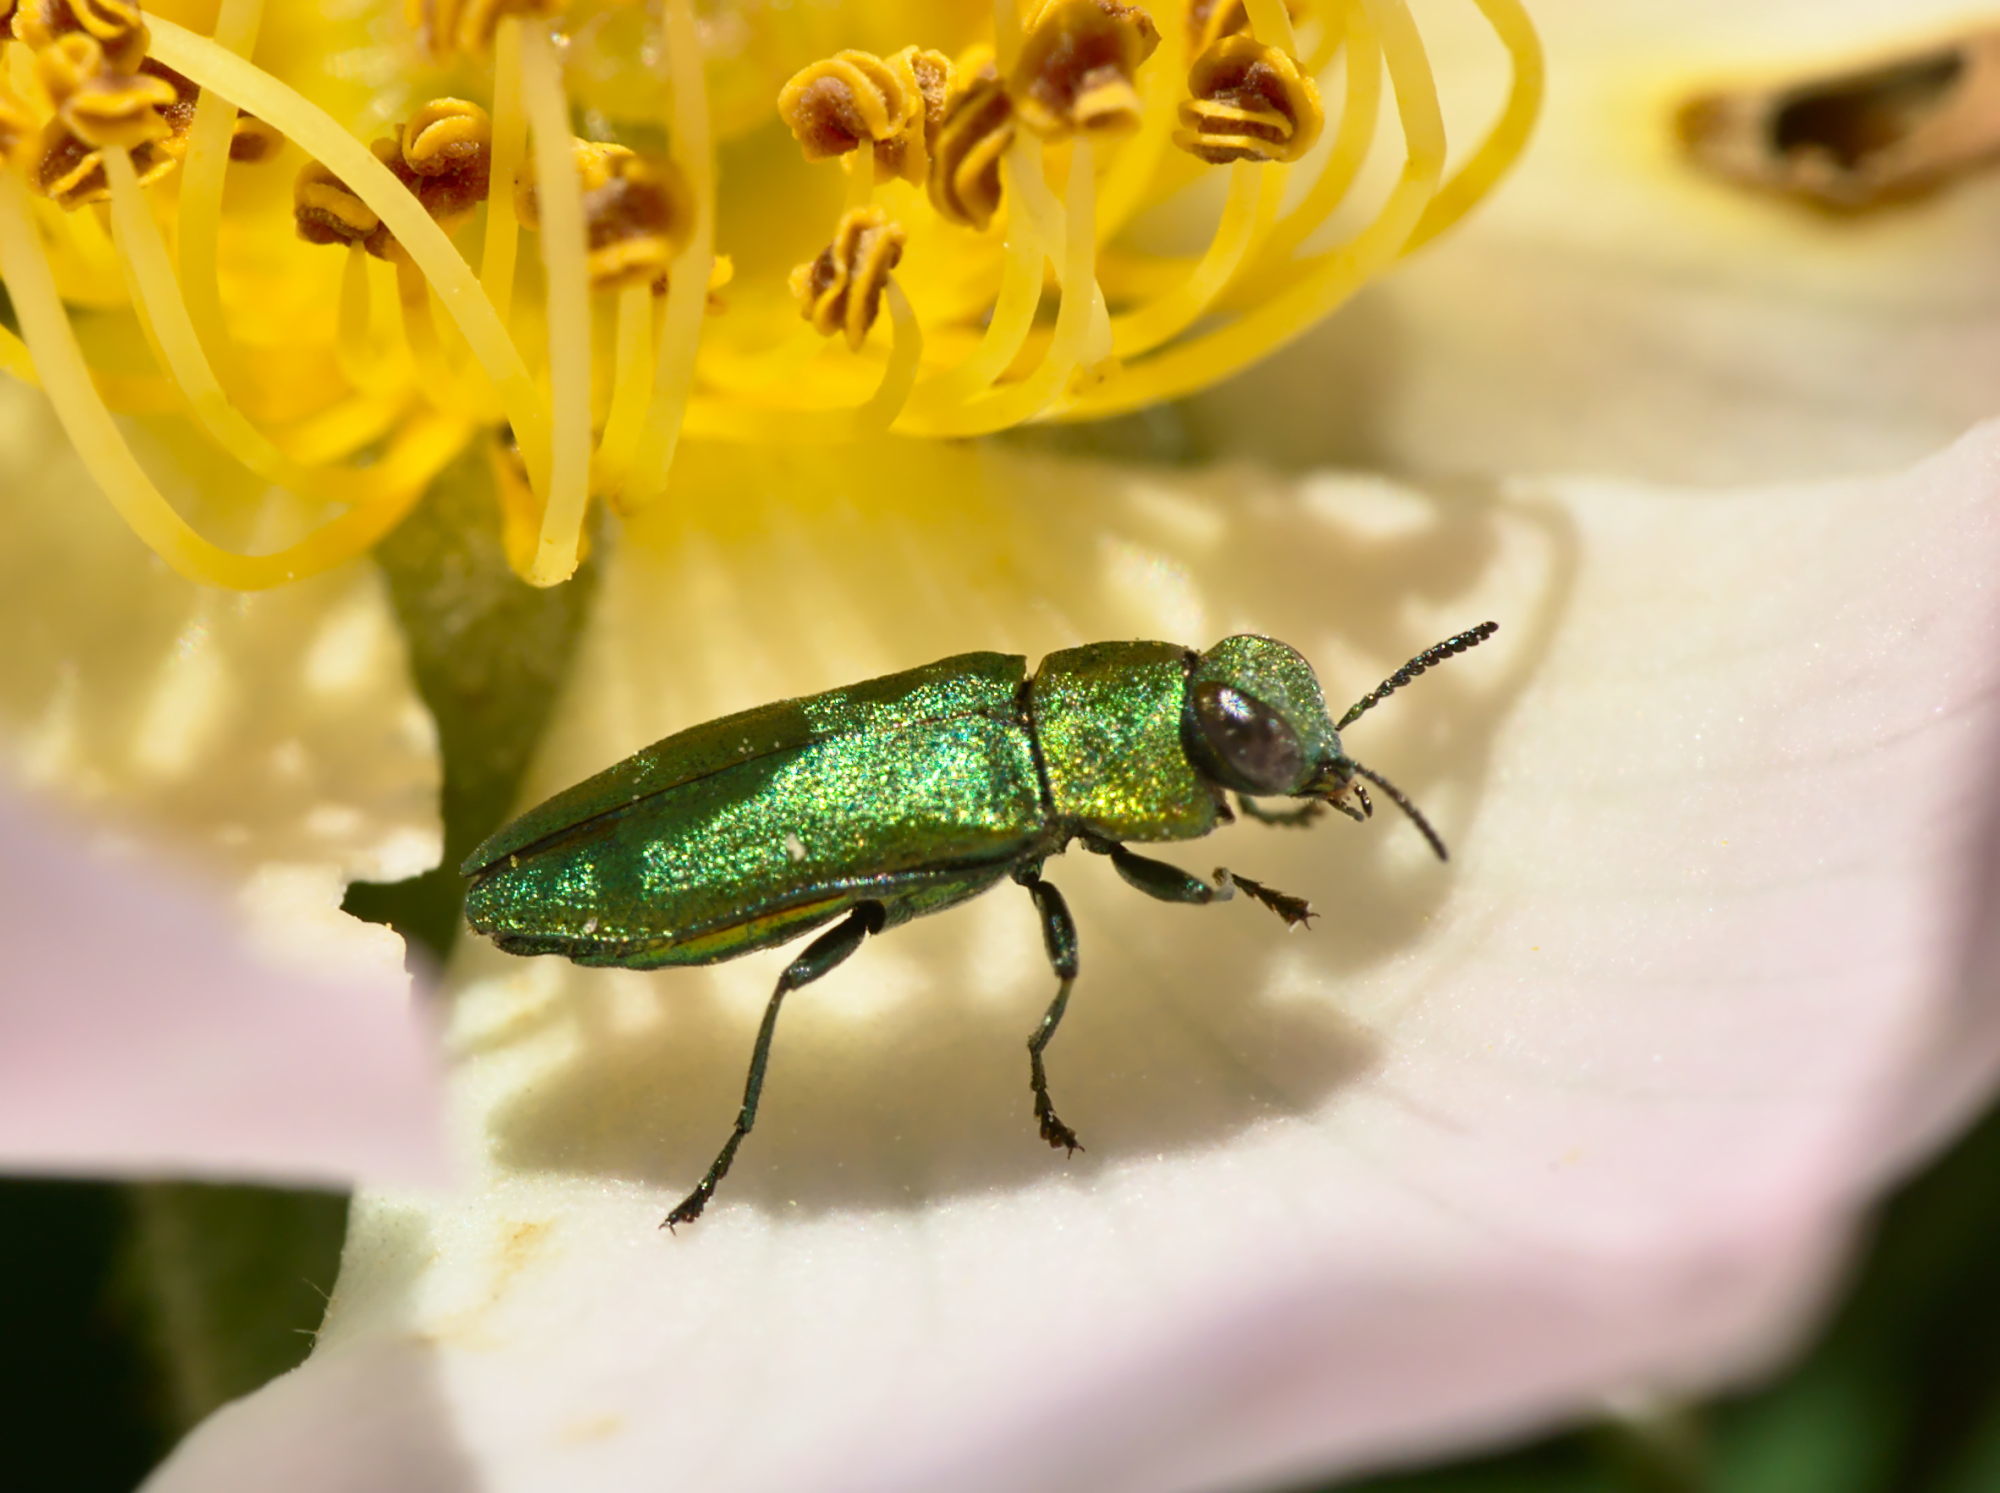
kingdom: Animalia
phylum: Arthropoda
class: Insecta
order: Coleoptera
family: Buprestidae
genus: Anthaxia
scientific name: Anthaxia nitidula
